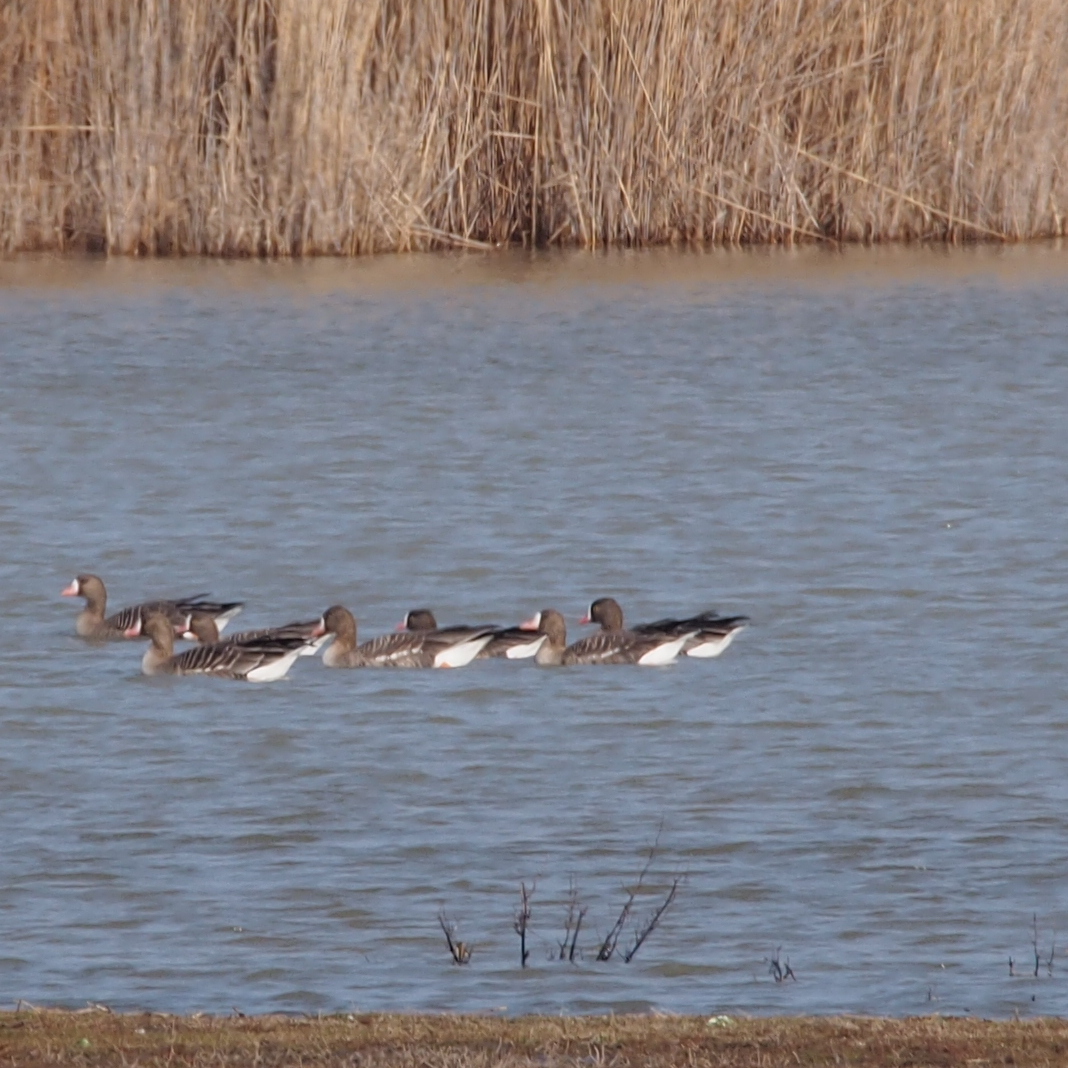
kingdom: Animalia
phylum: Chordata
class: Aves
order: Anseriformes
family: Anatidae
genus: Anser
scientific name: Anser erythropus
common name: Lesser white-fronted goose
